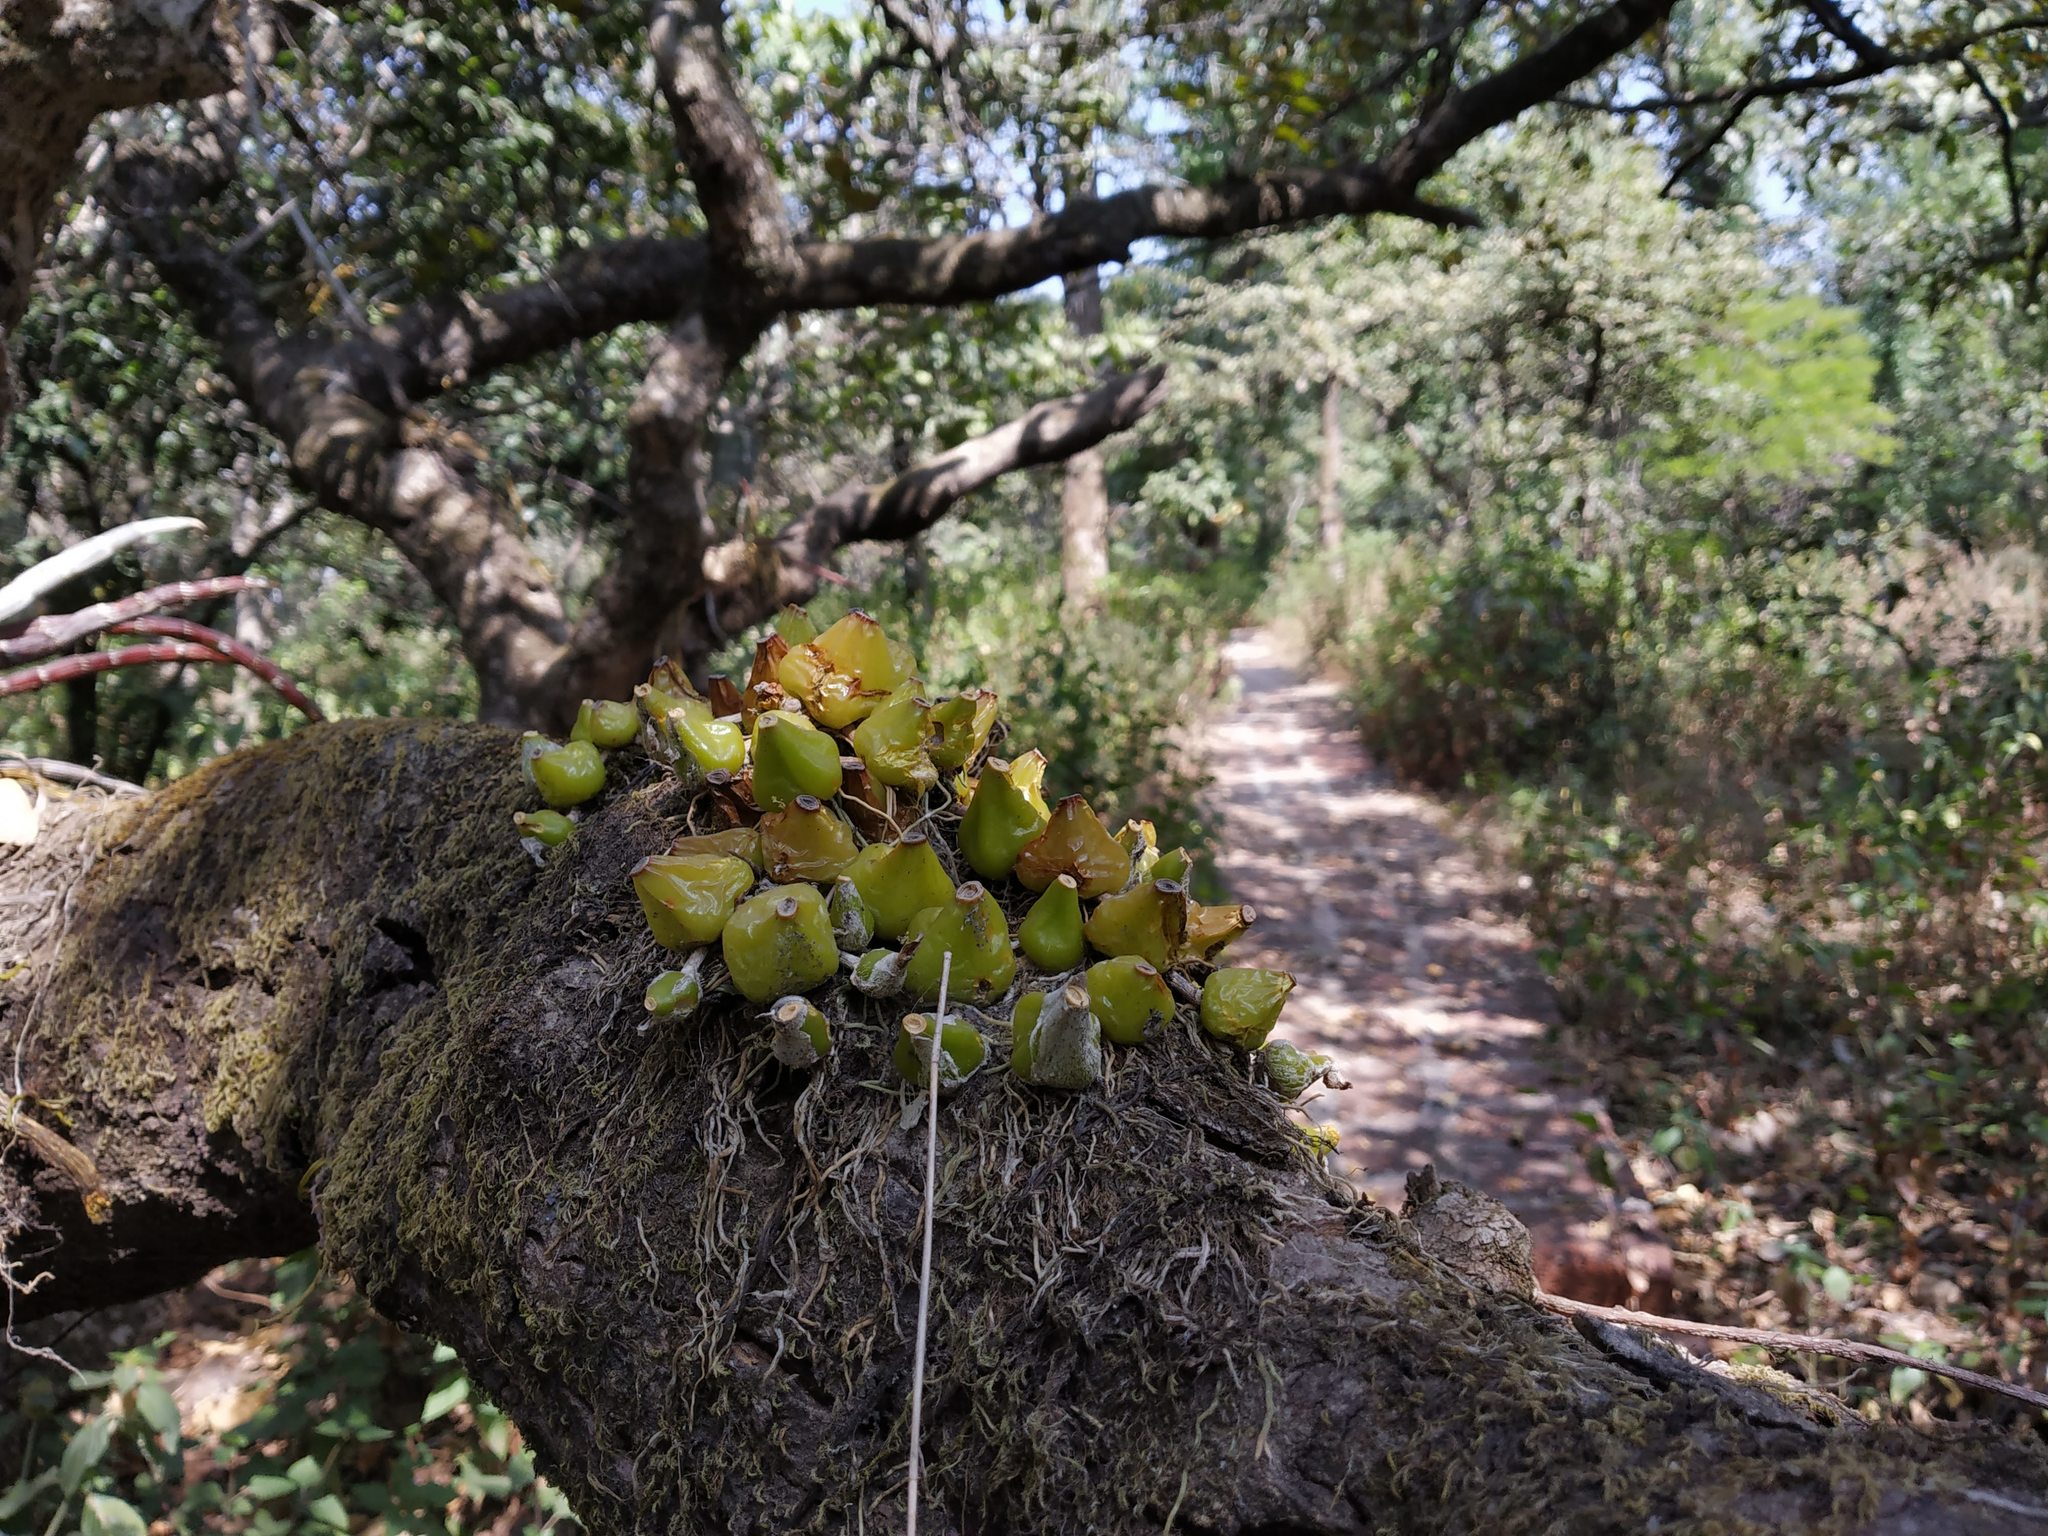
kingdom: Plantae
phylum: Tracheophyta
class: Liliopsida
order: Asparagales
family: Orchidaceae
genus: Bulbophyllum
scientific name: Bulbophyllum fimbriatum
